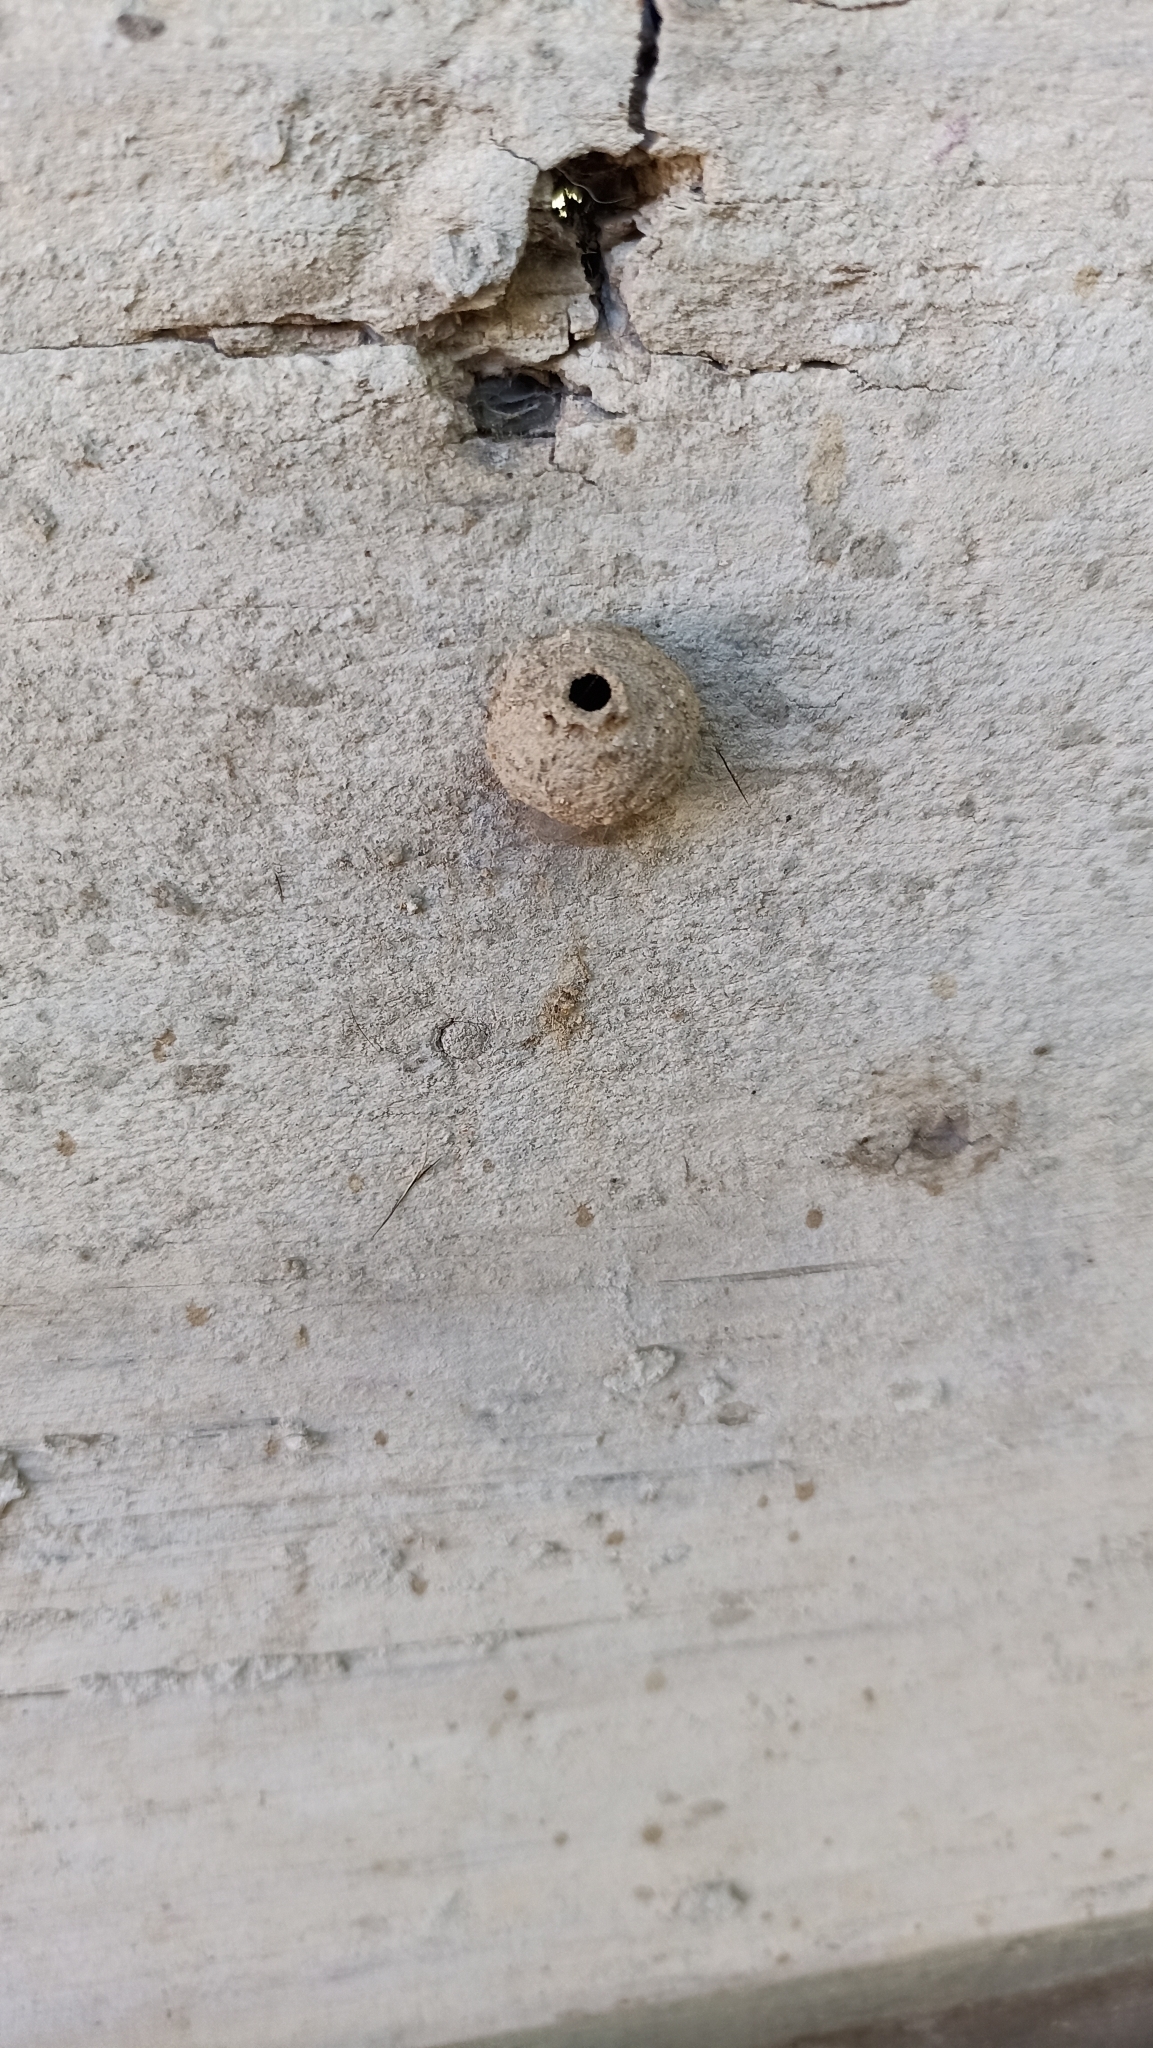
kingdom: Animalia
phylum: Arthropoda
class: Insecta
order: Hymenoptera
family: Eumenidae
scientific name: Eumenidae
